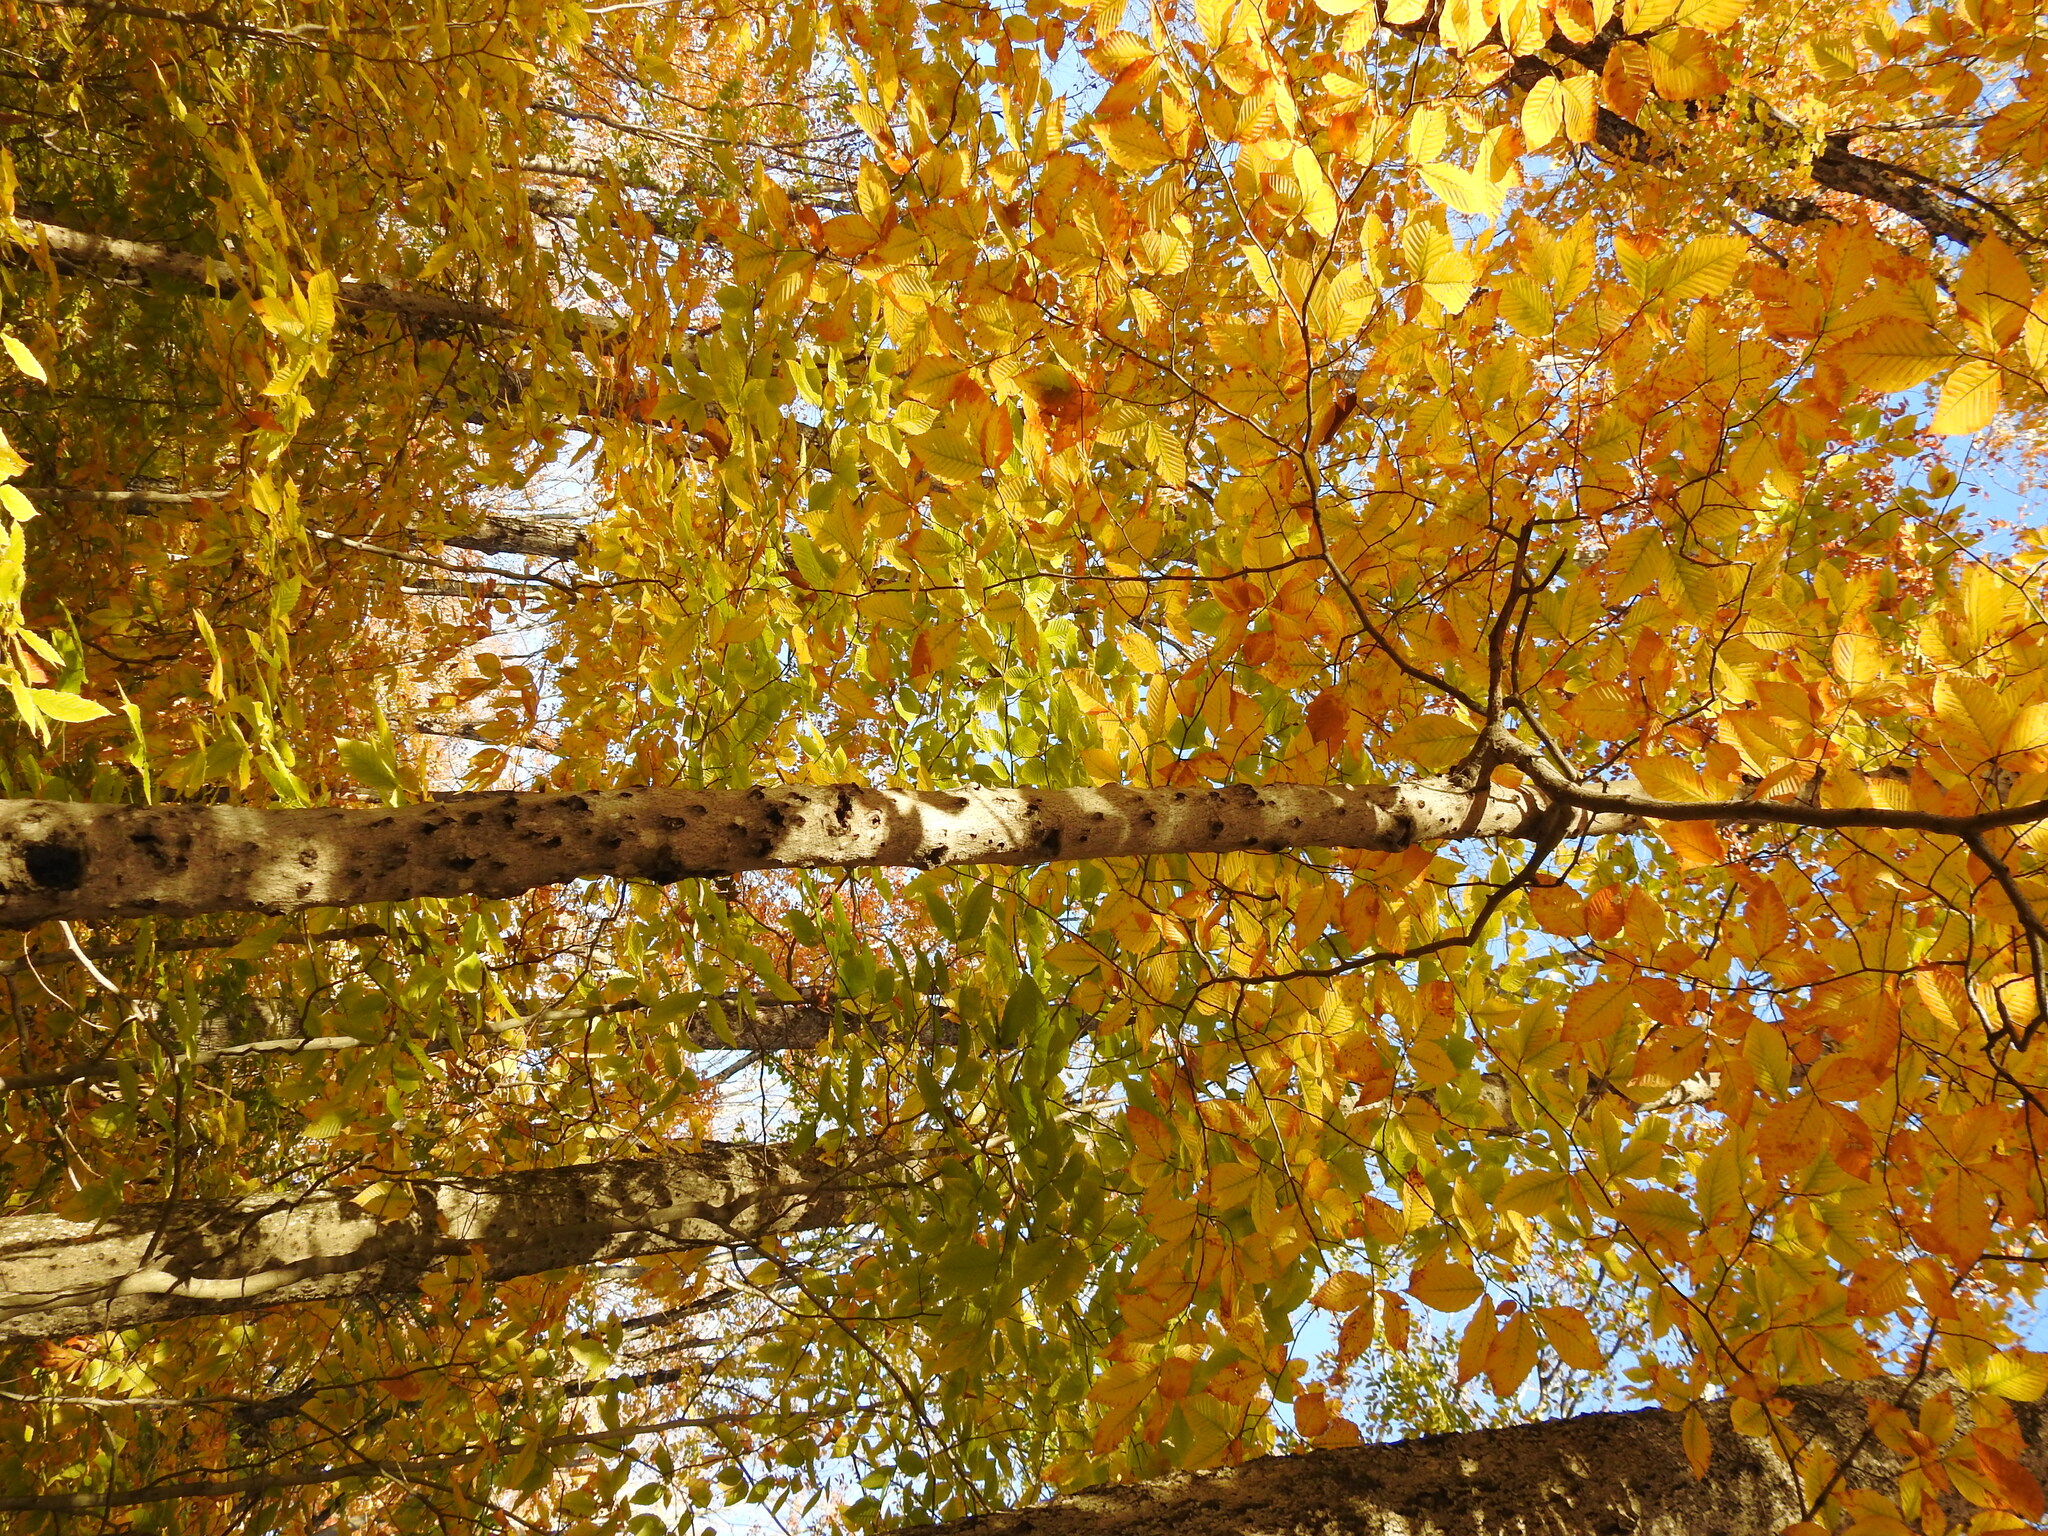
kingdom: Plantae
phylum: Tracheophyta
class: Magnoliopsida
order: Fagales
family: Fagaceae
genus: Fagus
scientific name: Fagus grandifolia
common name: American beech
